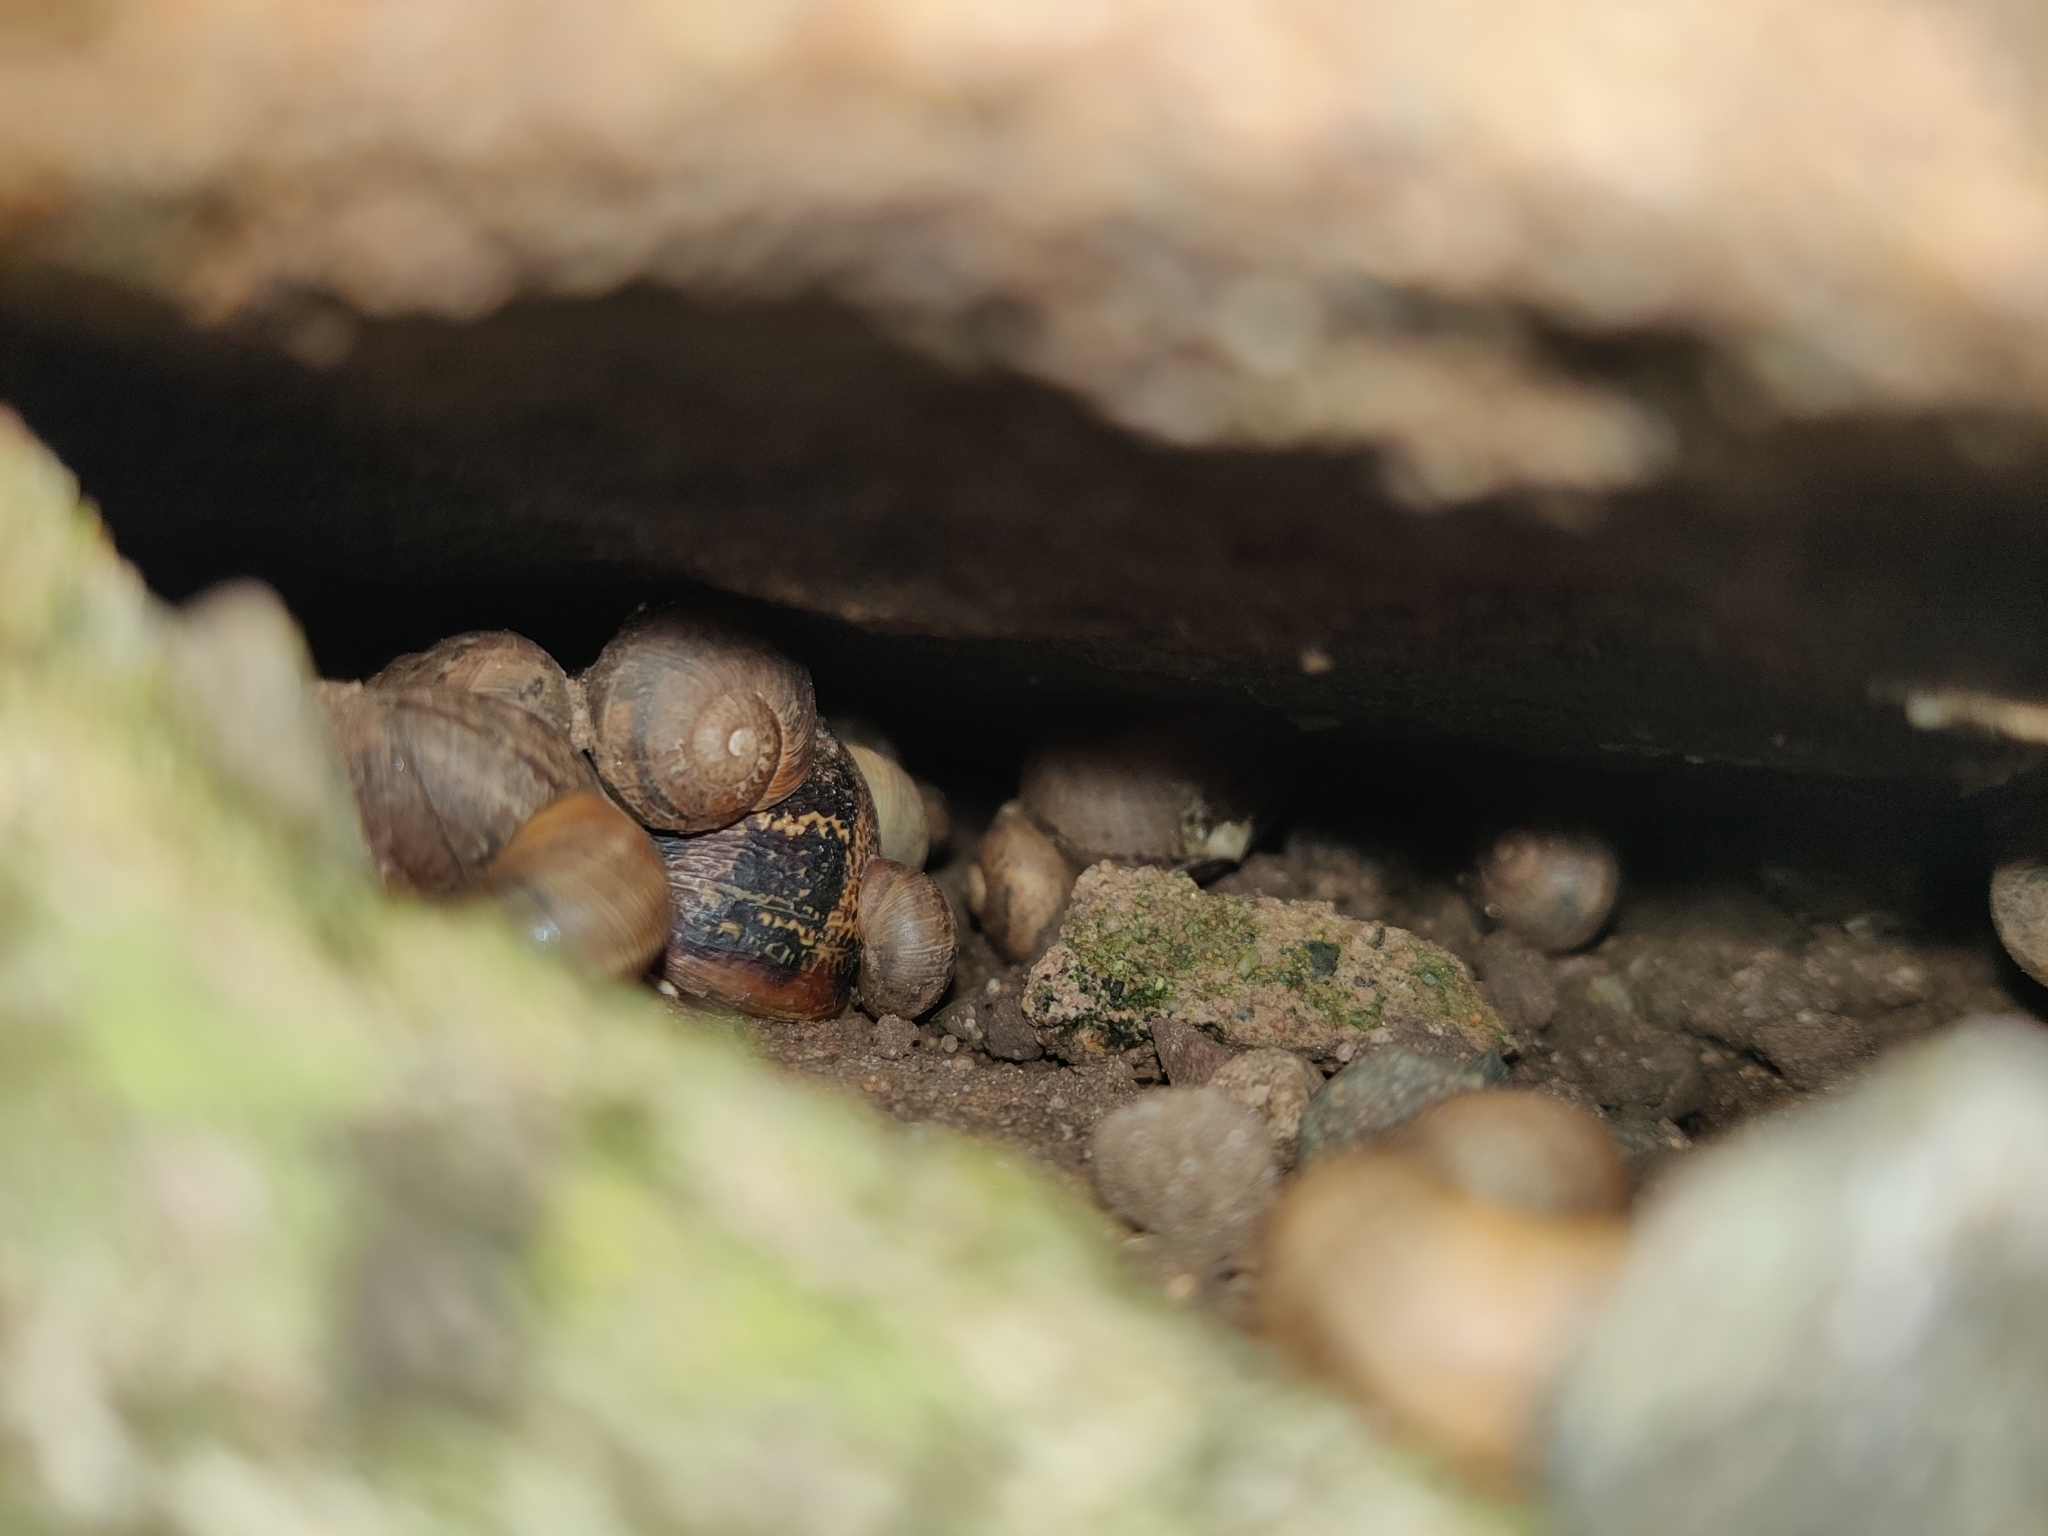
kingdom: Animalia
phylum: Mollusca
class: Gastropoda
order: Stylommatophora
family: Helicidae
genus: Cornu
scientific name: Cornu aspersum
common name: Brown garden snail
